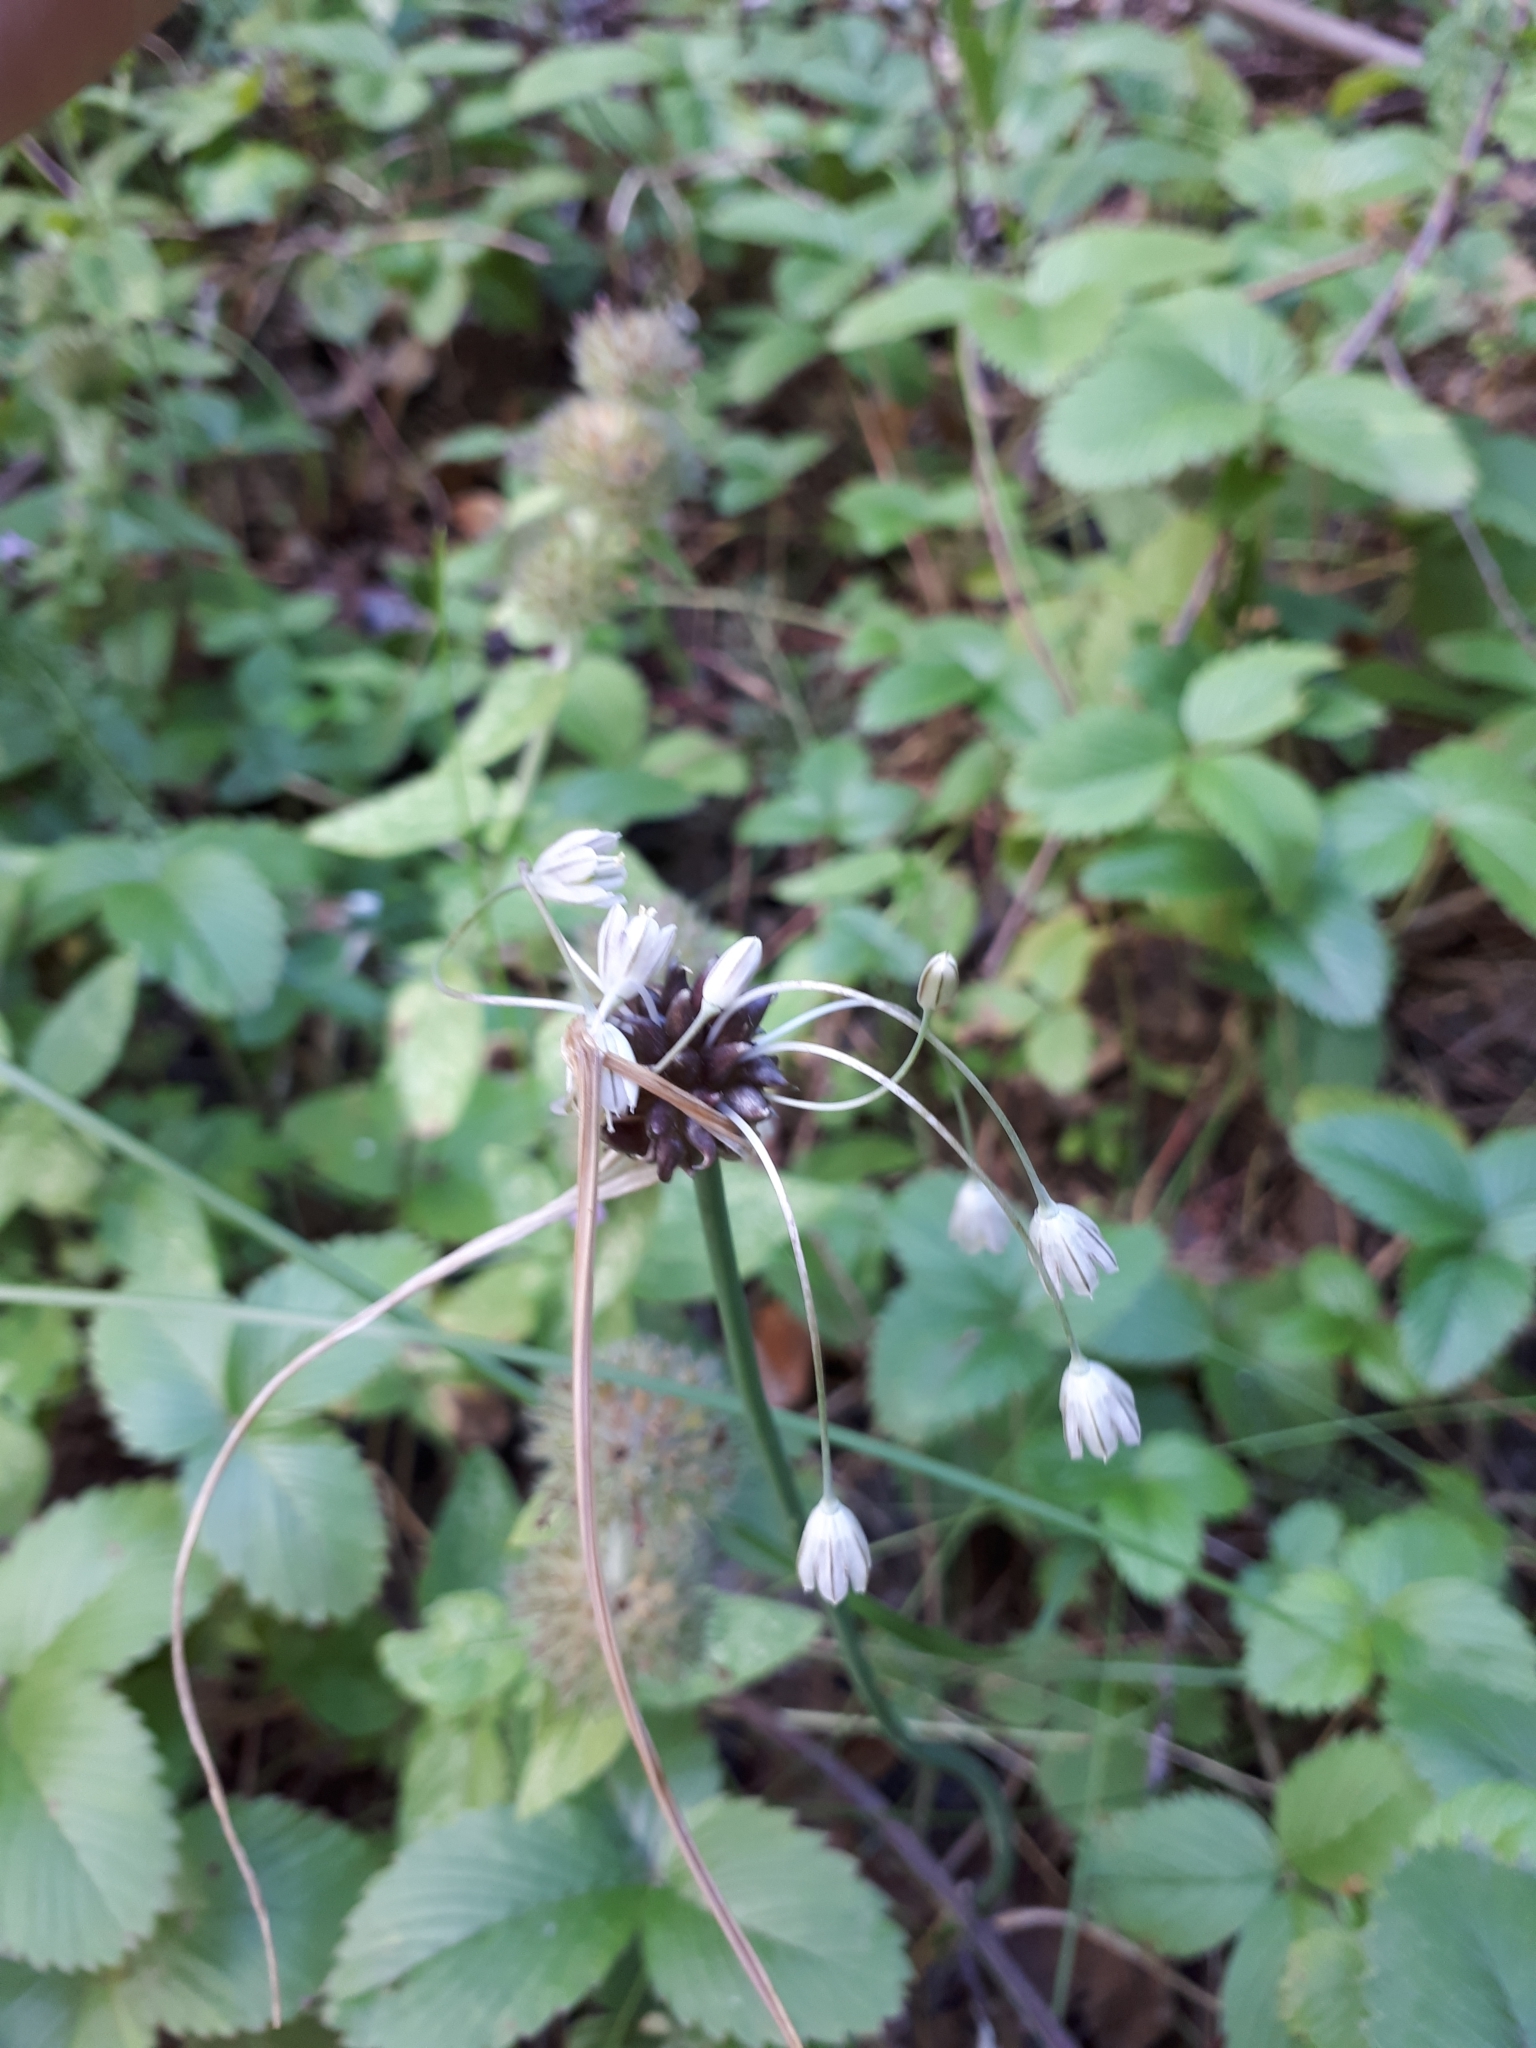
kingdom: Plantae
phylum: Tracheophyta
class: Liliopsida
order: Asparagales
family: Amaryllidaceae
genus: Allium
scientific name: Allium oleraceum
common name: Field garlic
